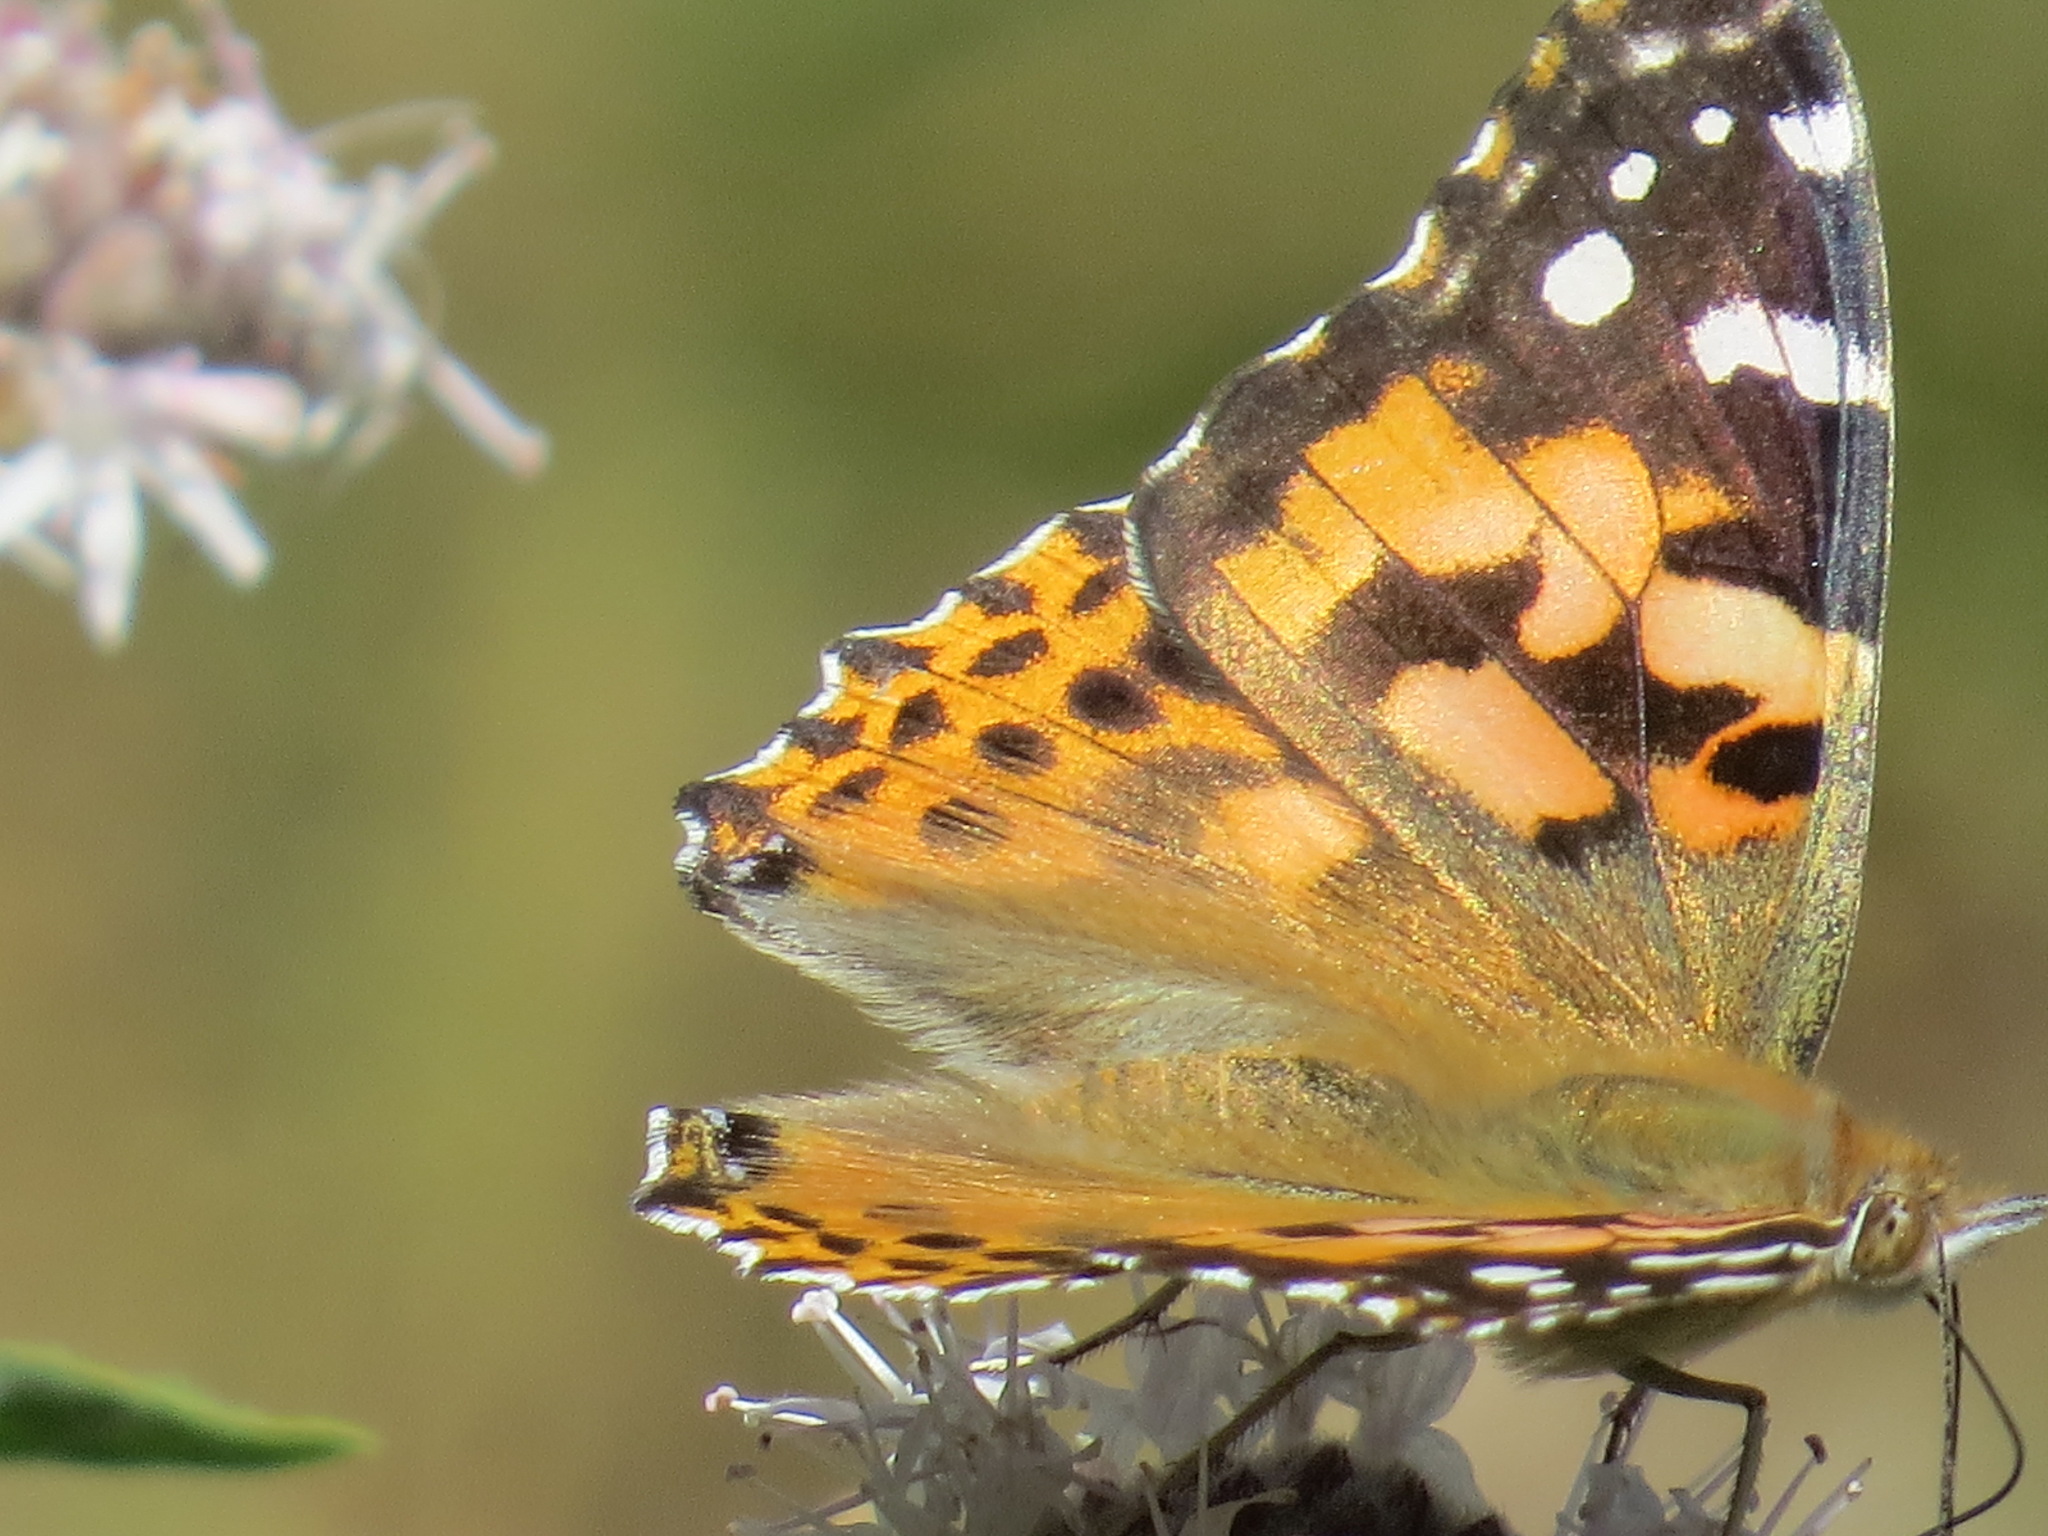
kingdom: Animalia
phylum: Arthropoda
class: Insecta
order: Lepidoptera
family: Nymphalidae
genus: Vanessa
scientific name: Vanessa cardui
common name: Painted lady
